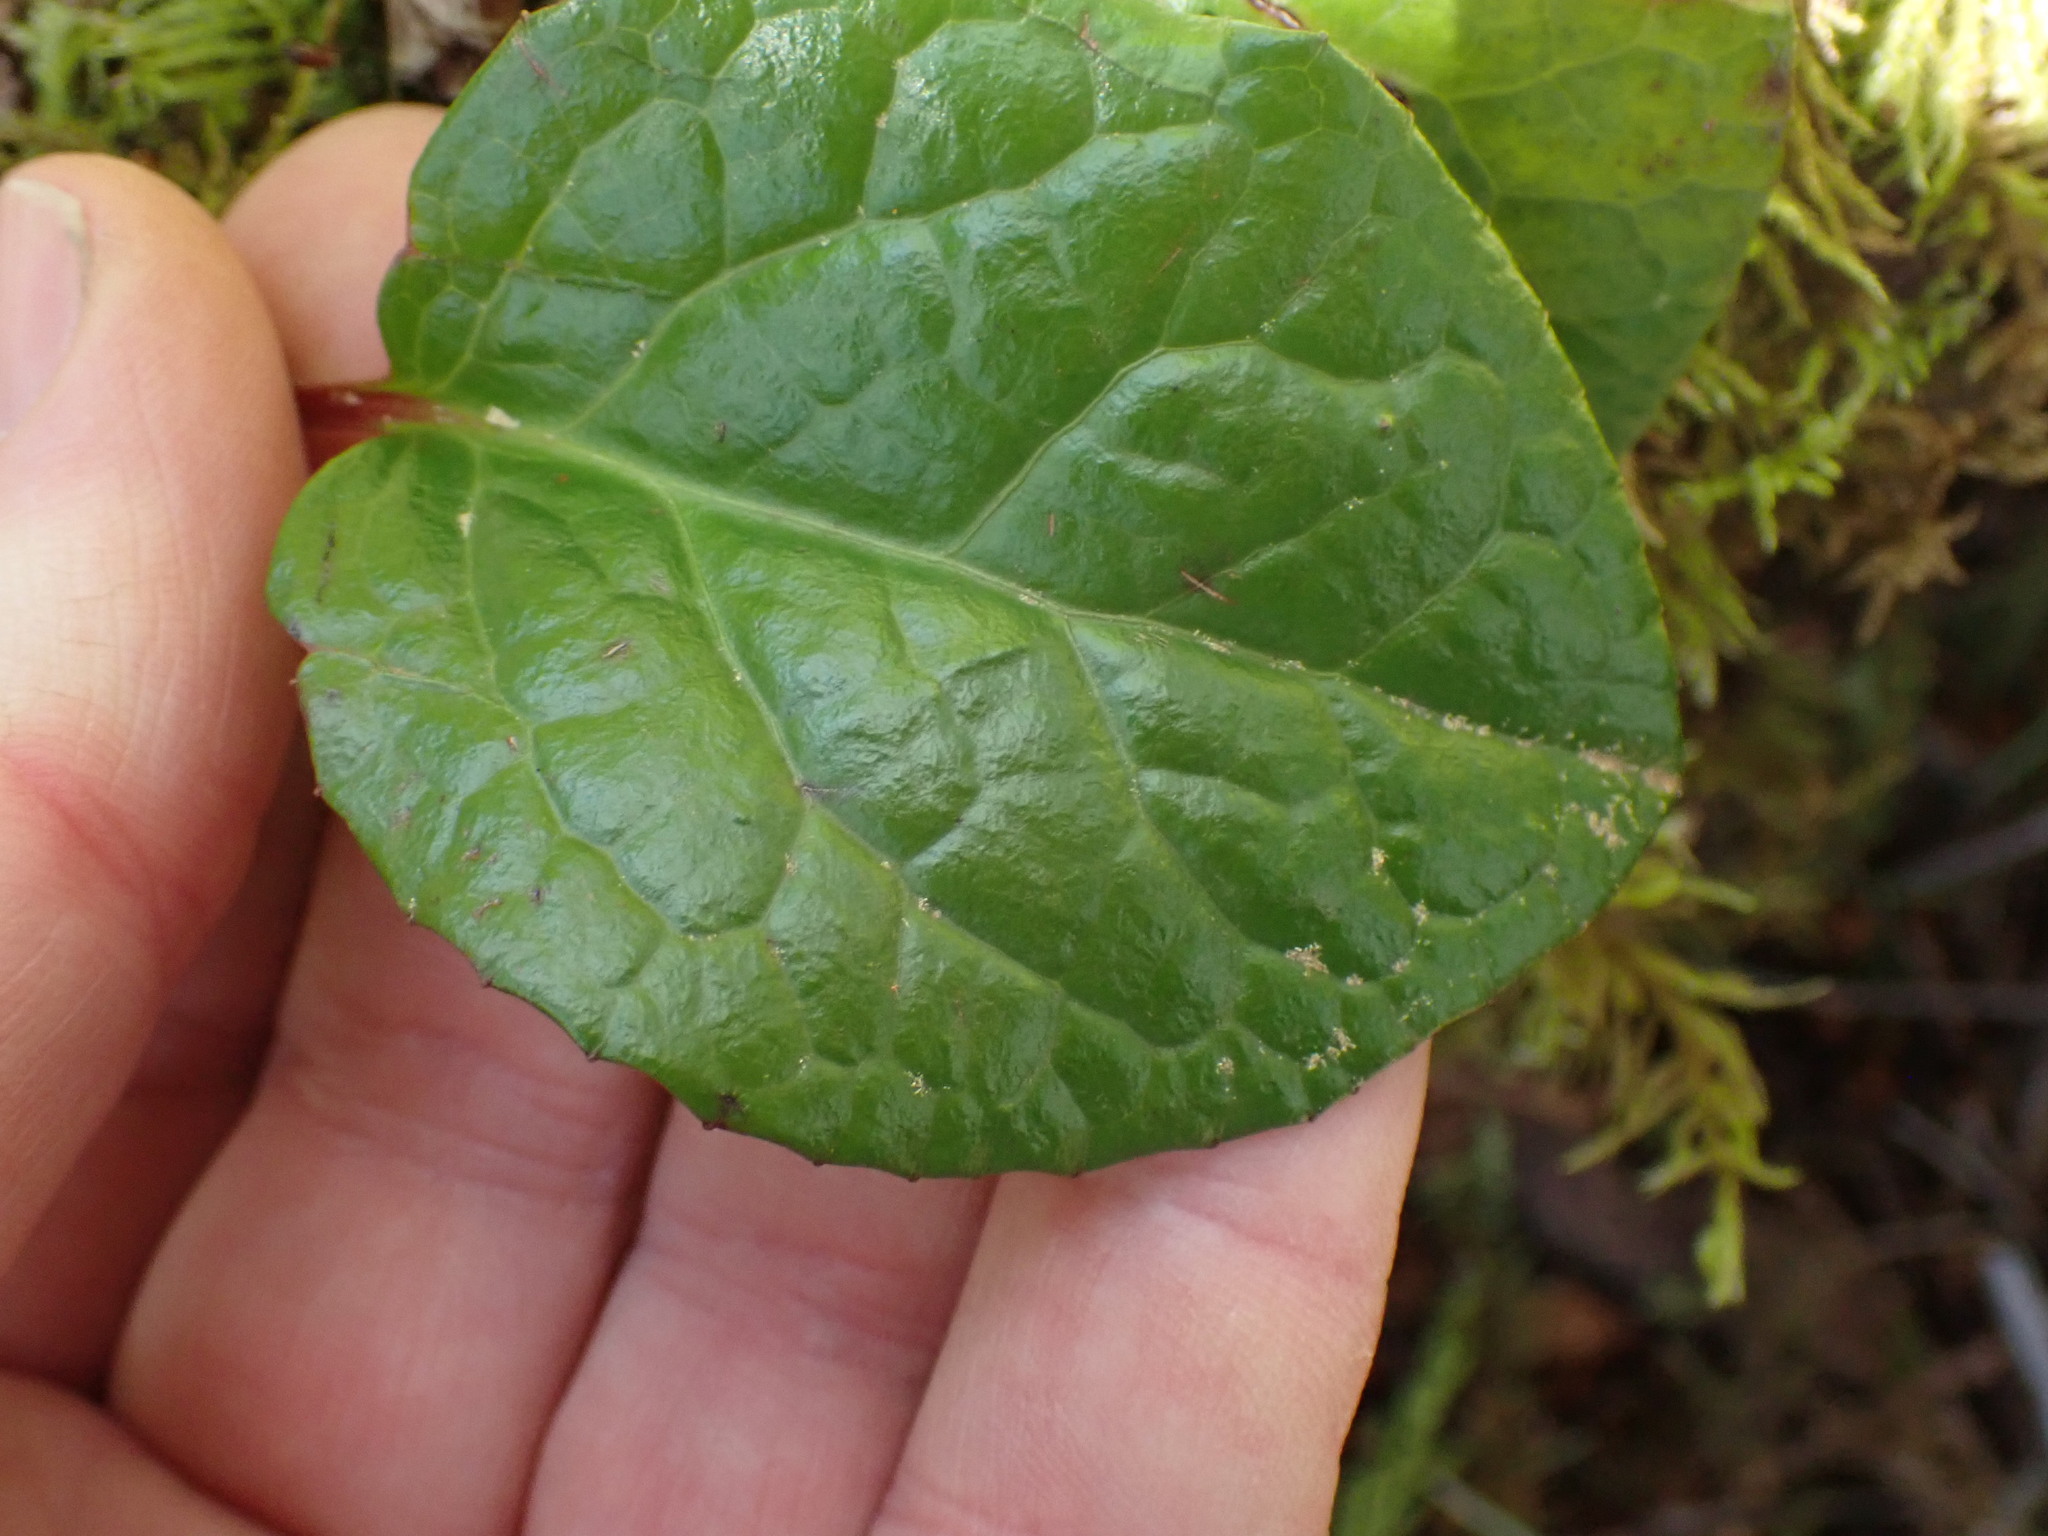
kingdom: Plantae
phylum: Tracheophyta
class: Magnoliopsida
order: Ericales
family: Ericaceae
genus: Pyrola
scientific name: Pyrola asarifolia
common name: Bog wintergreen
